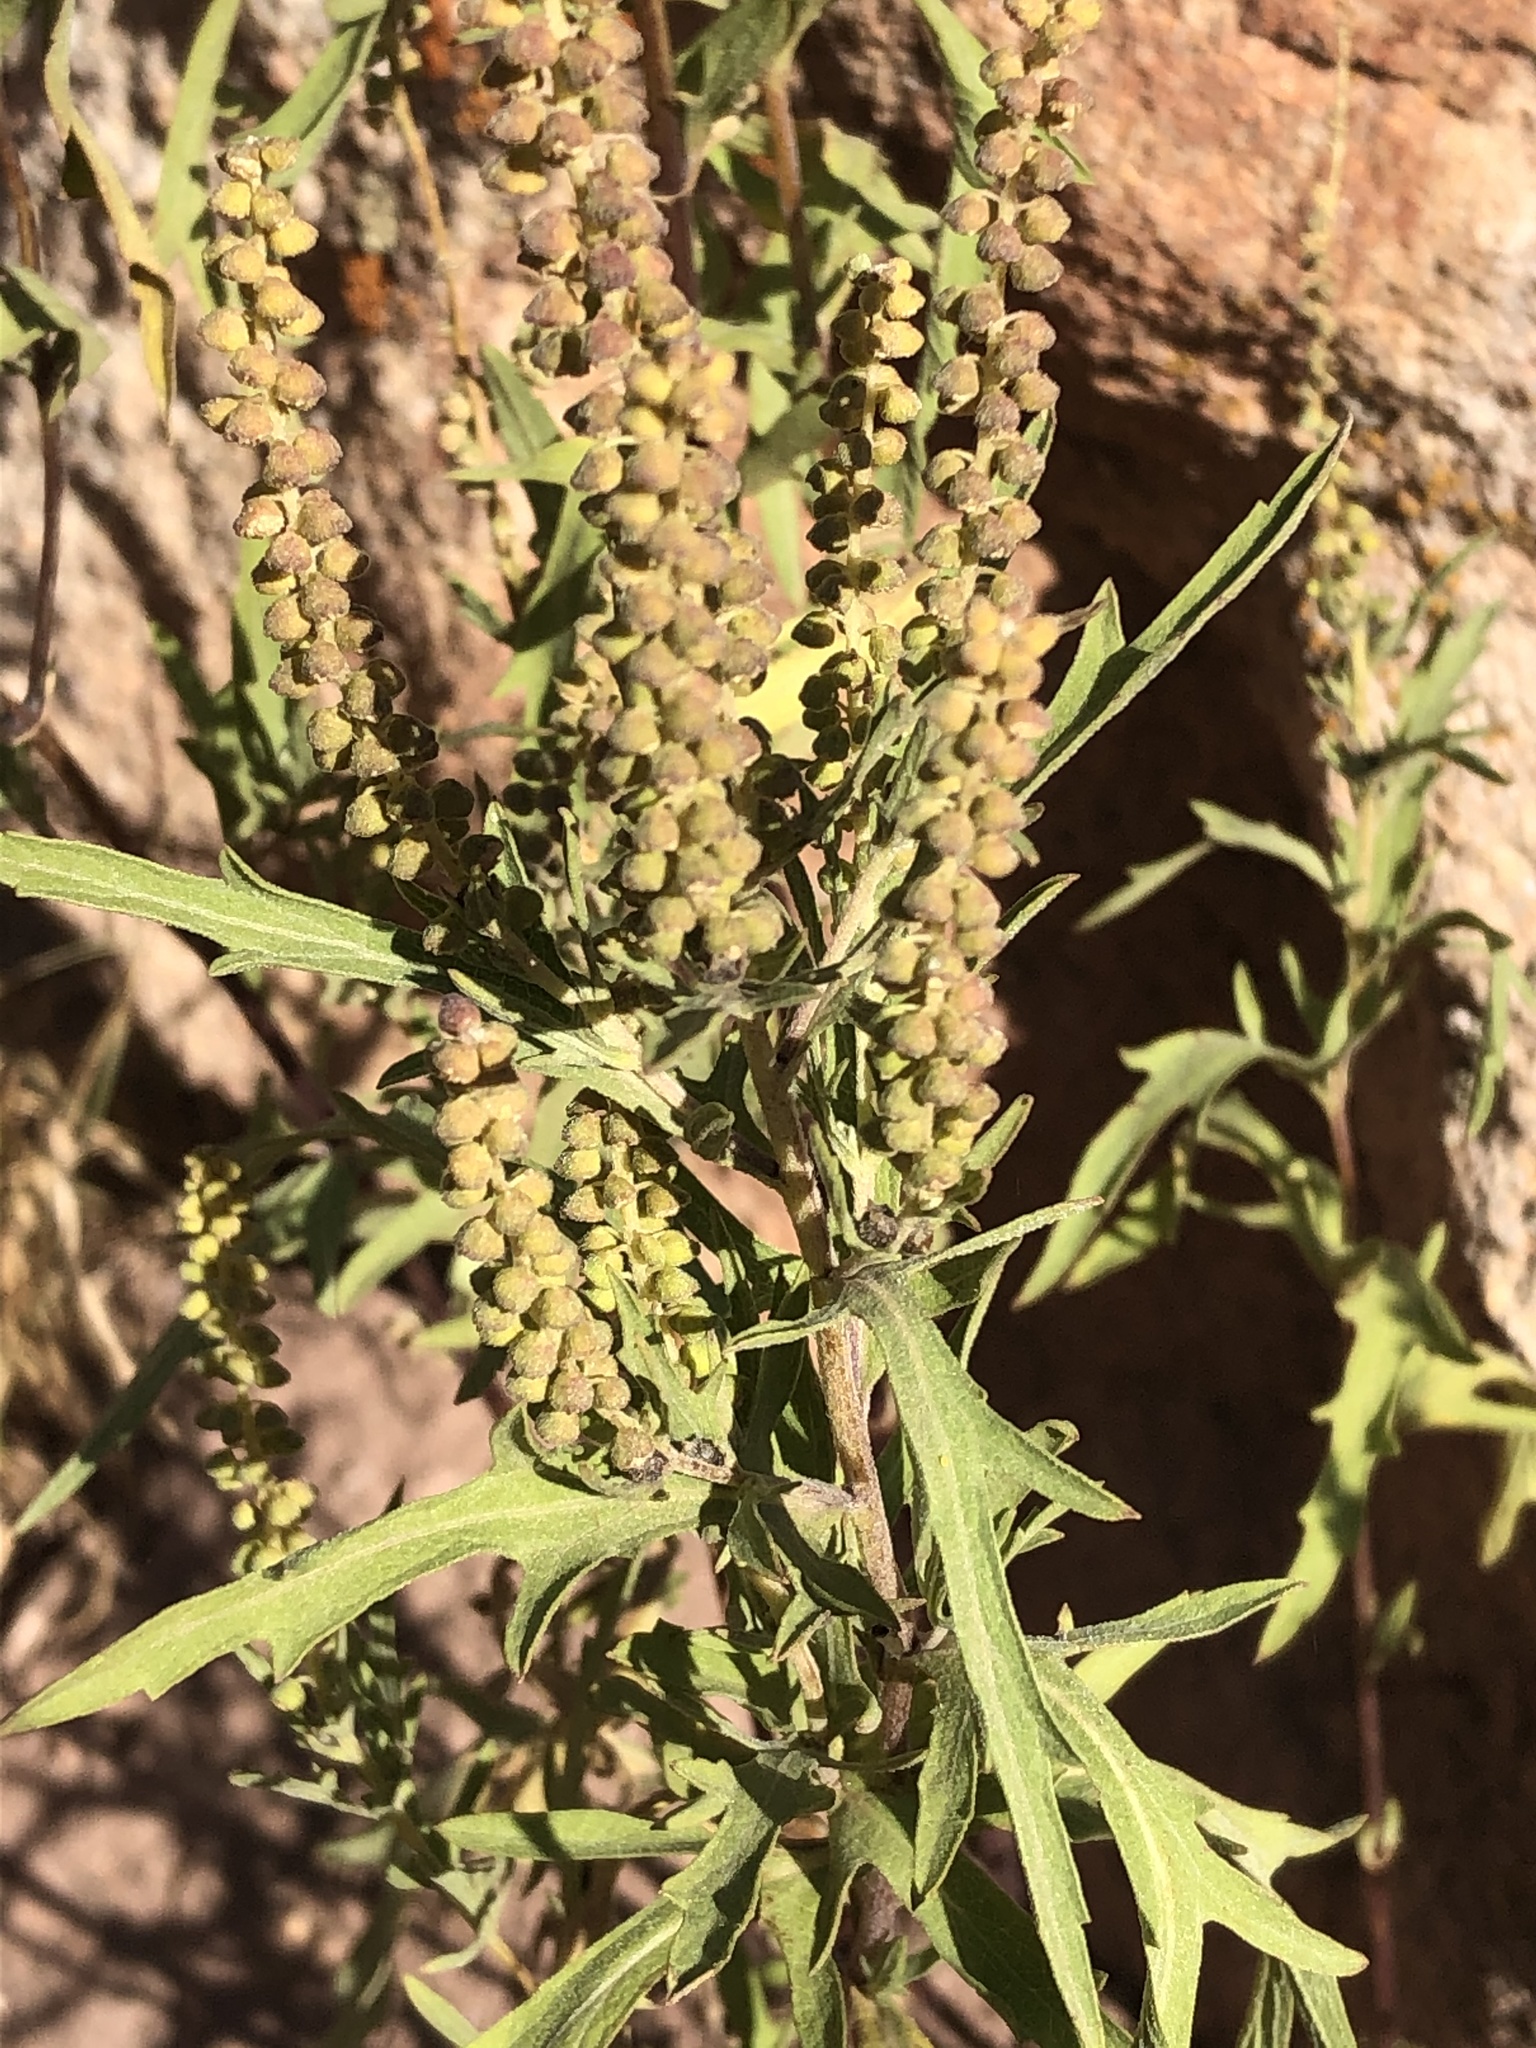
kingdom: Plantae
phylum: Tracheophyta
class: Magnoliopsida
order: Asterales
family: Asteraceae
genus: Ambrosia
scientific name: Ambrosia psilostachya
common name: Perennial ragweed
